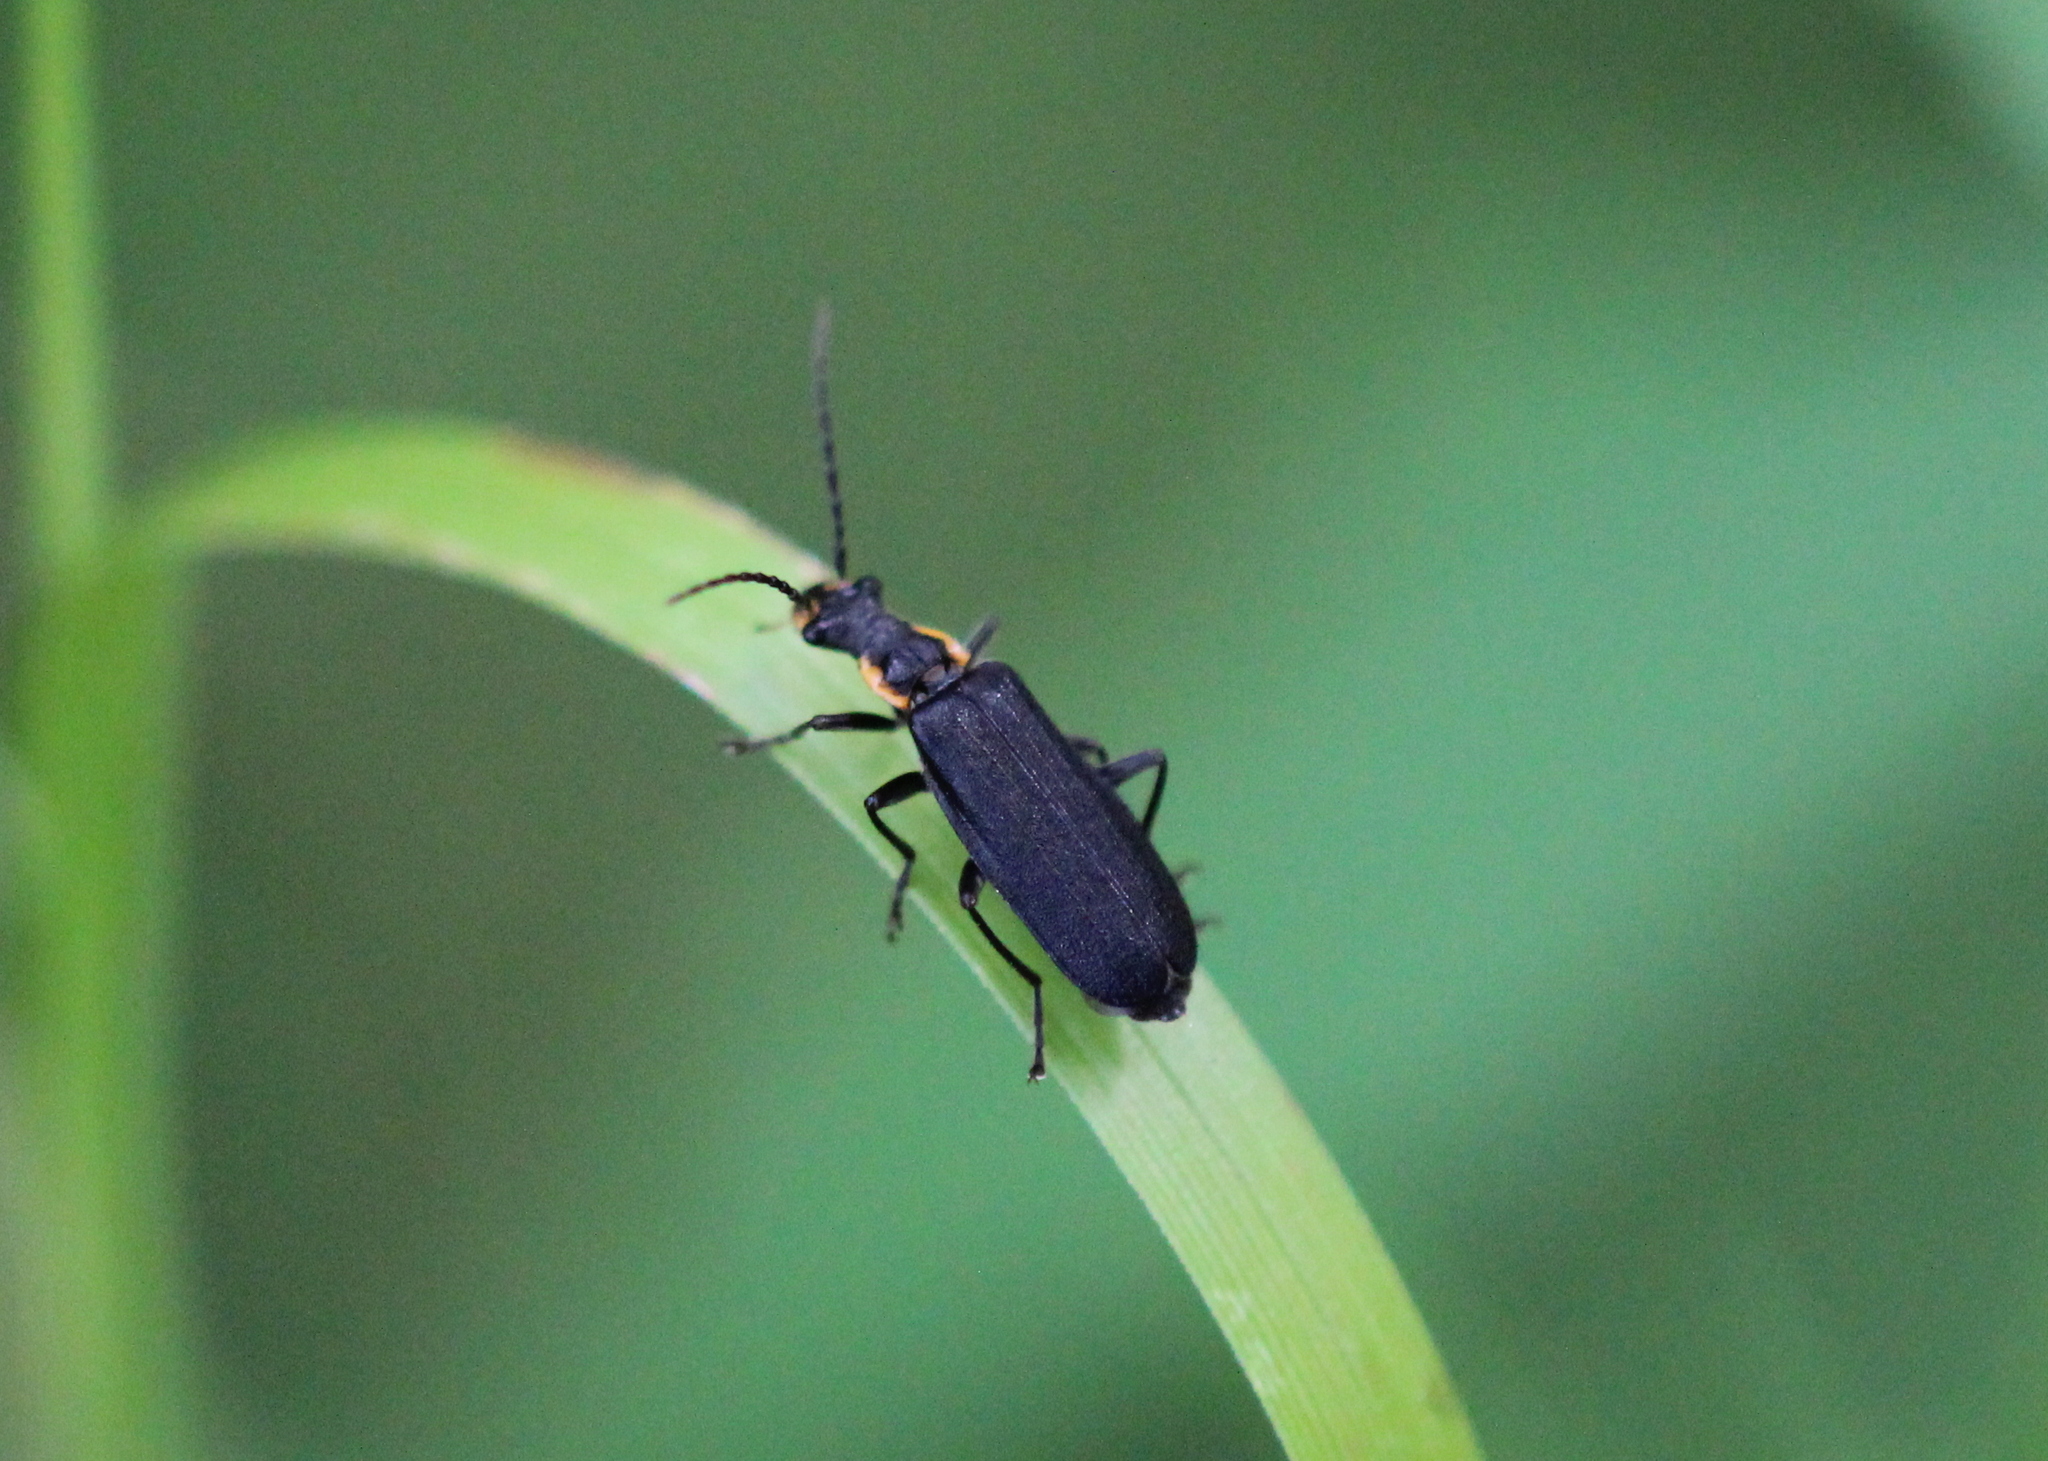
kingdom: Animalia
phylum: Arthropoda
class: Insecta
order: Coleoptera
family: Cantharidae
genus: Podabrus
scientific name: Podabrus rugosulus
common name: Wrinkled soldier beetle
